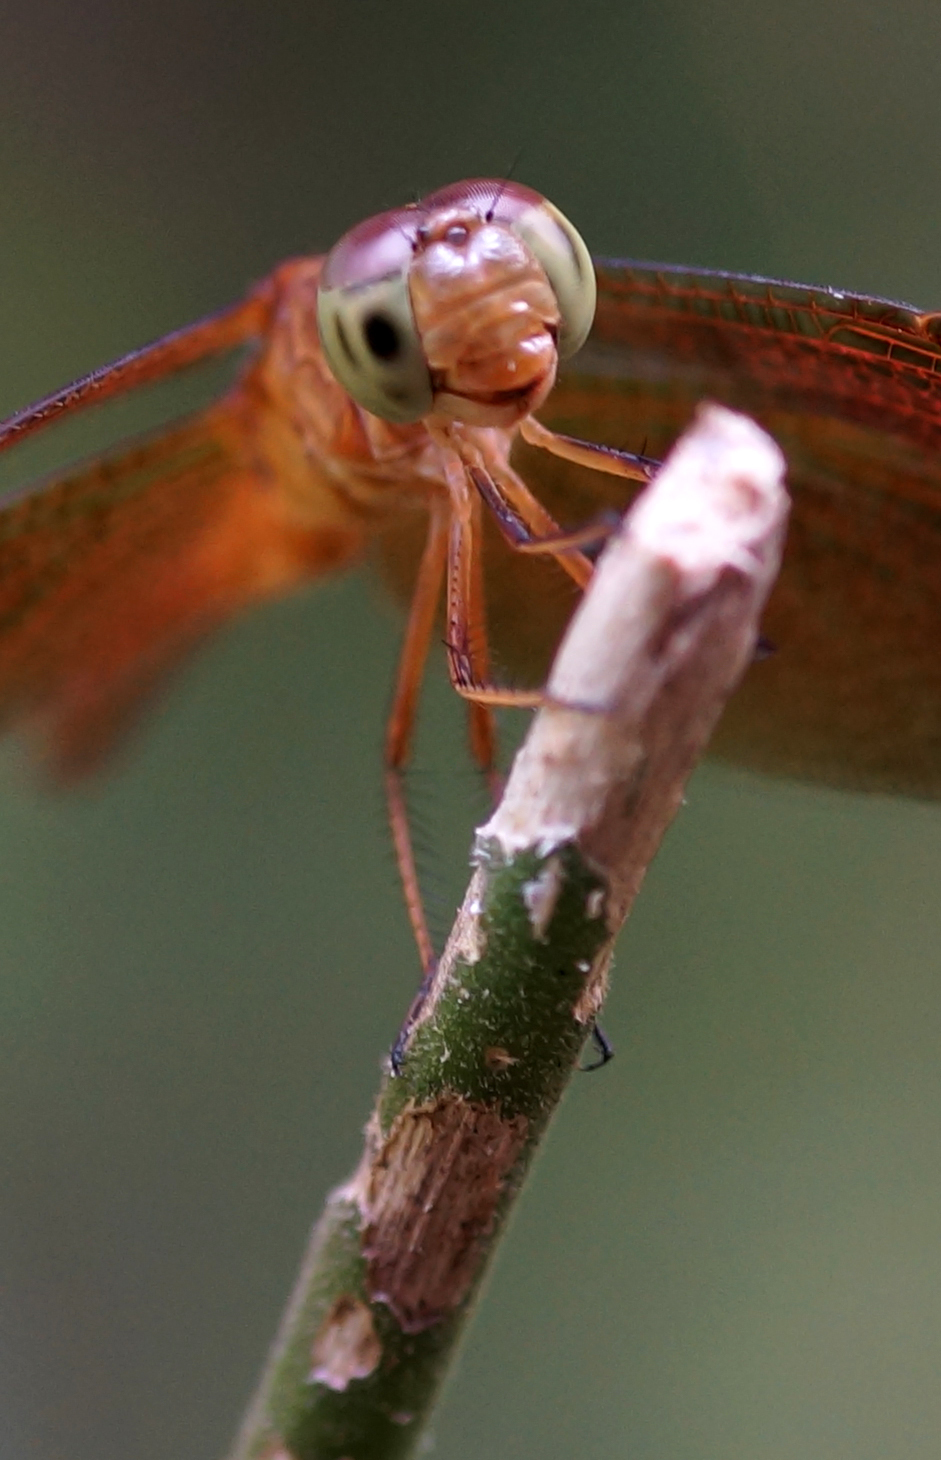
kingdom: Animalia
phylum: Arthropoda
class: Insecta
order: Odonata
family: Libellulidae
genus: Neurothemis
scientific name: Neurothemis fluctuans
